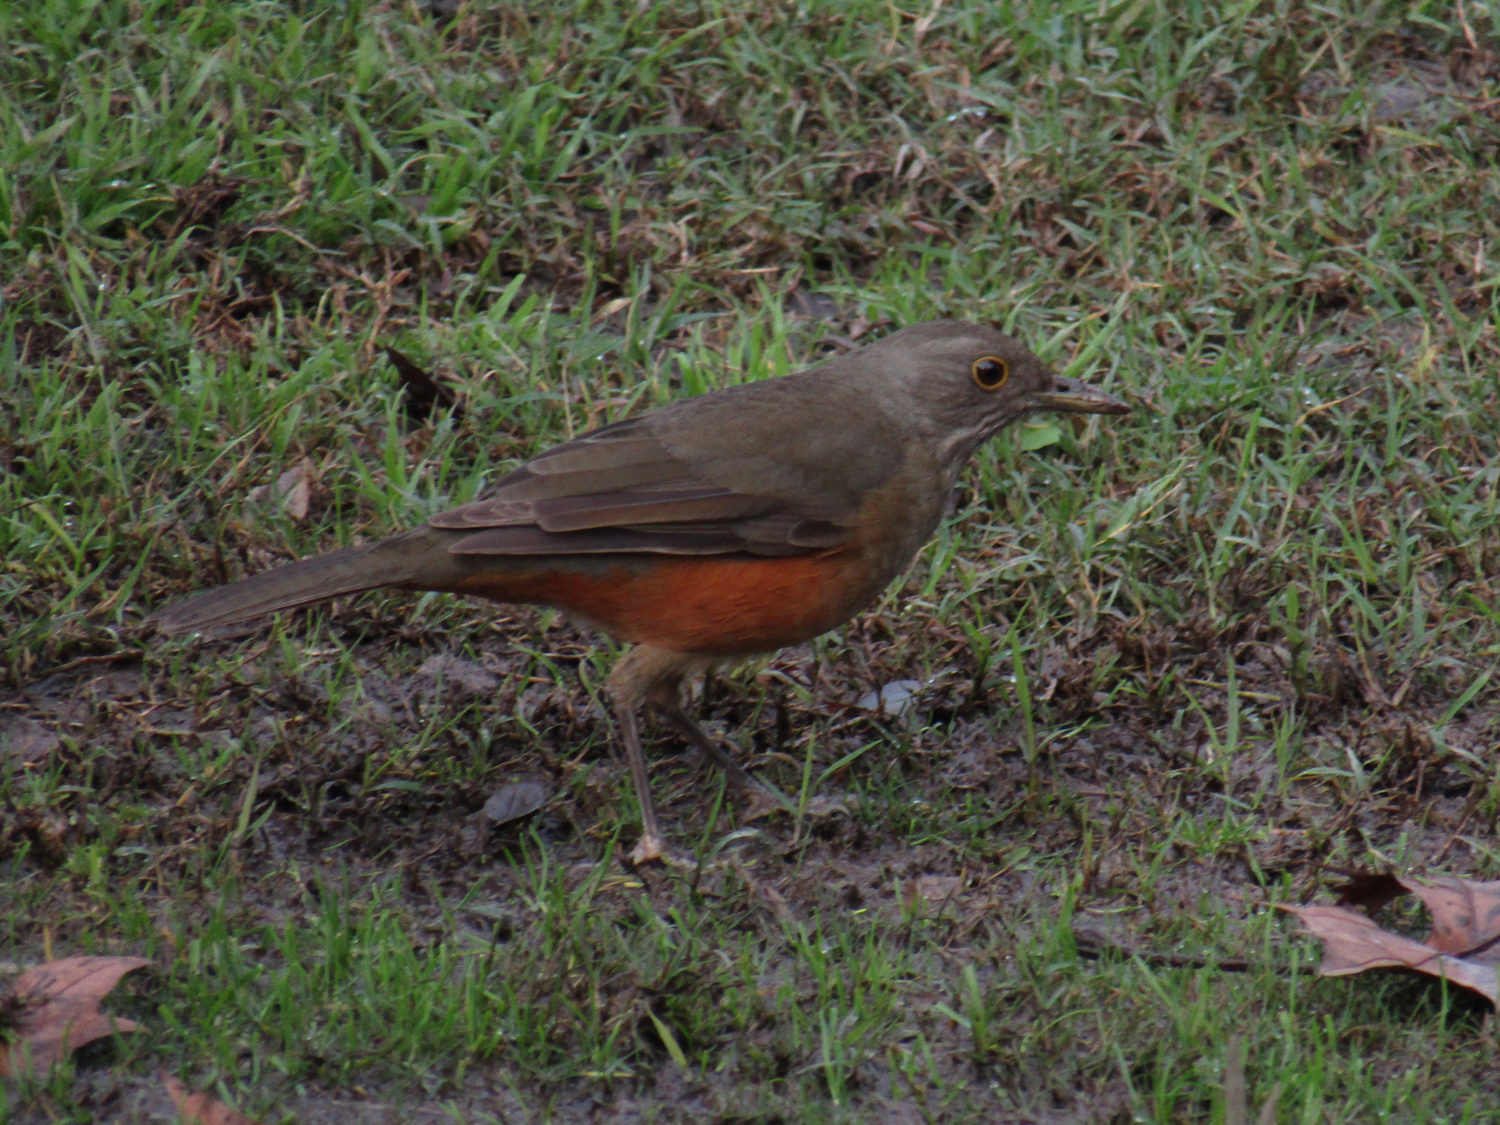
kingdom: Animalia
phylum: Chordata
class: Aves
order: Passeriformes
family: Turdidae
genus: Turdus
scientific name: Turdus rufiventris
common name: Rufous-bellied thrush
